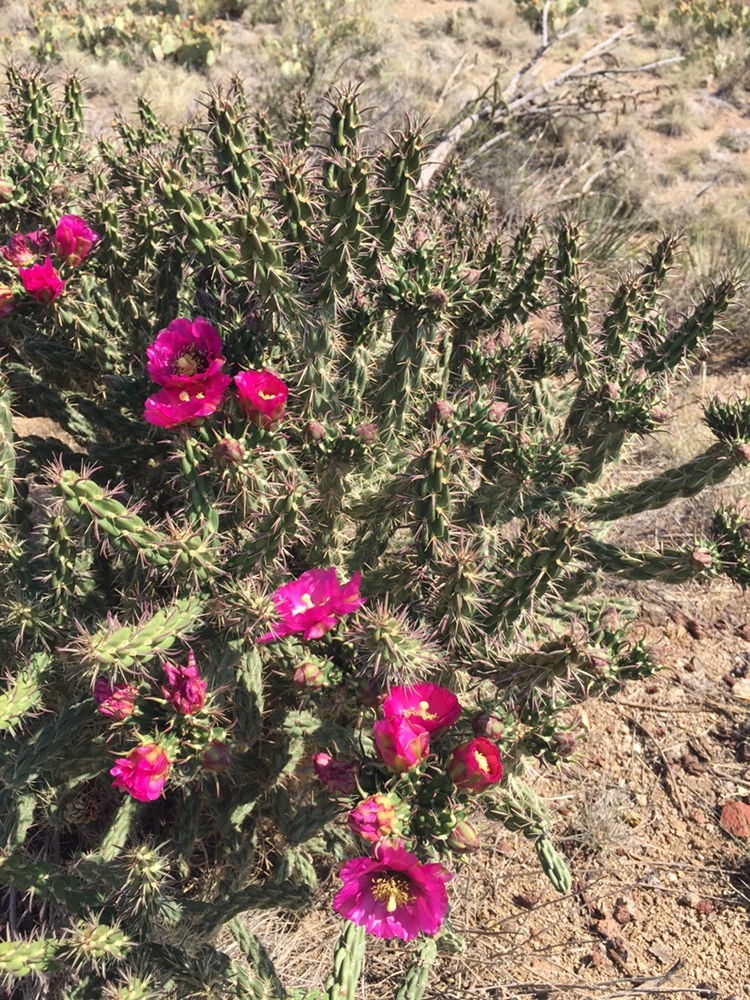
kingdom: Plantae
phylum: Tracheophyta
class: Magnoliopsida
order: Caryophyllales
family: Cactaceae
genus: Cylindropuntia
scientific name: Cylindropuntia imbricata
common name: Candelabrum cactus
